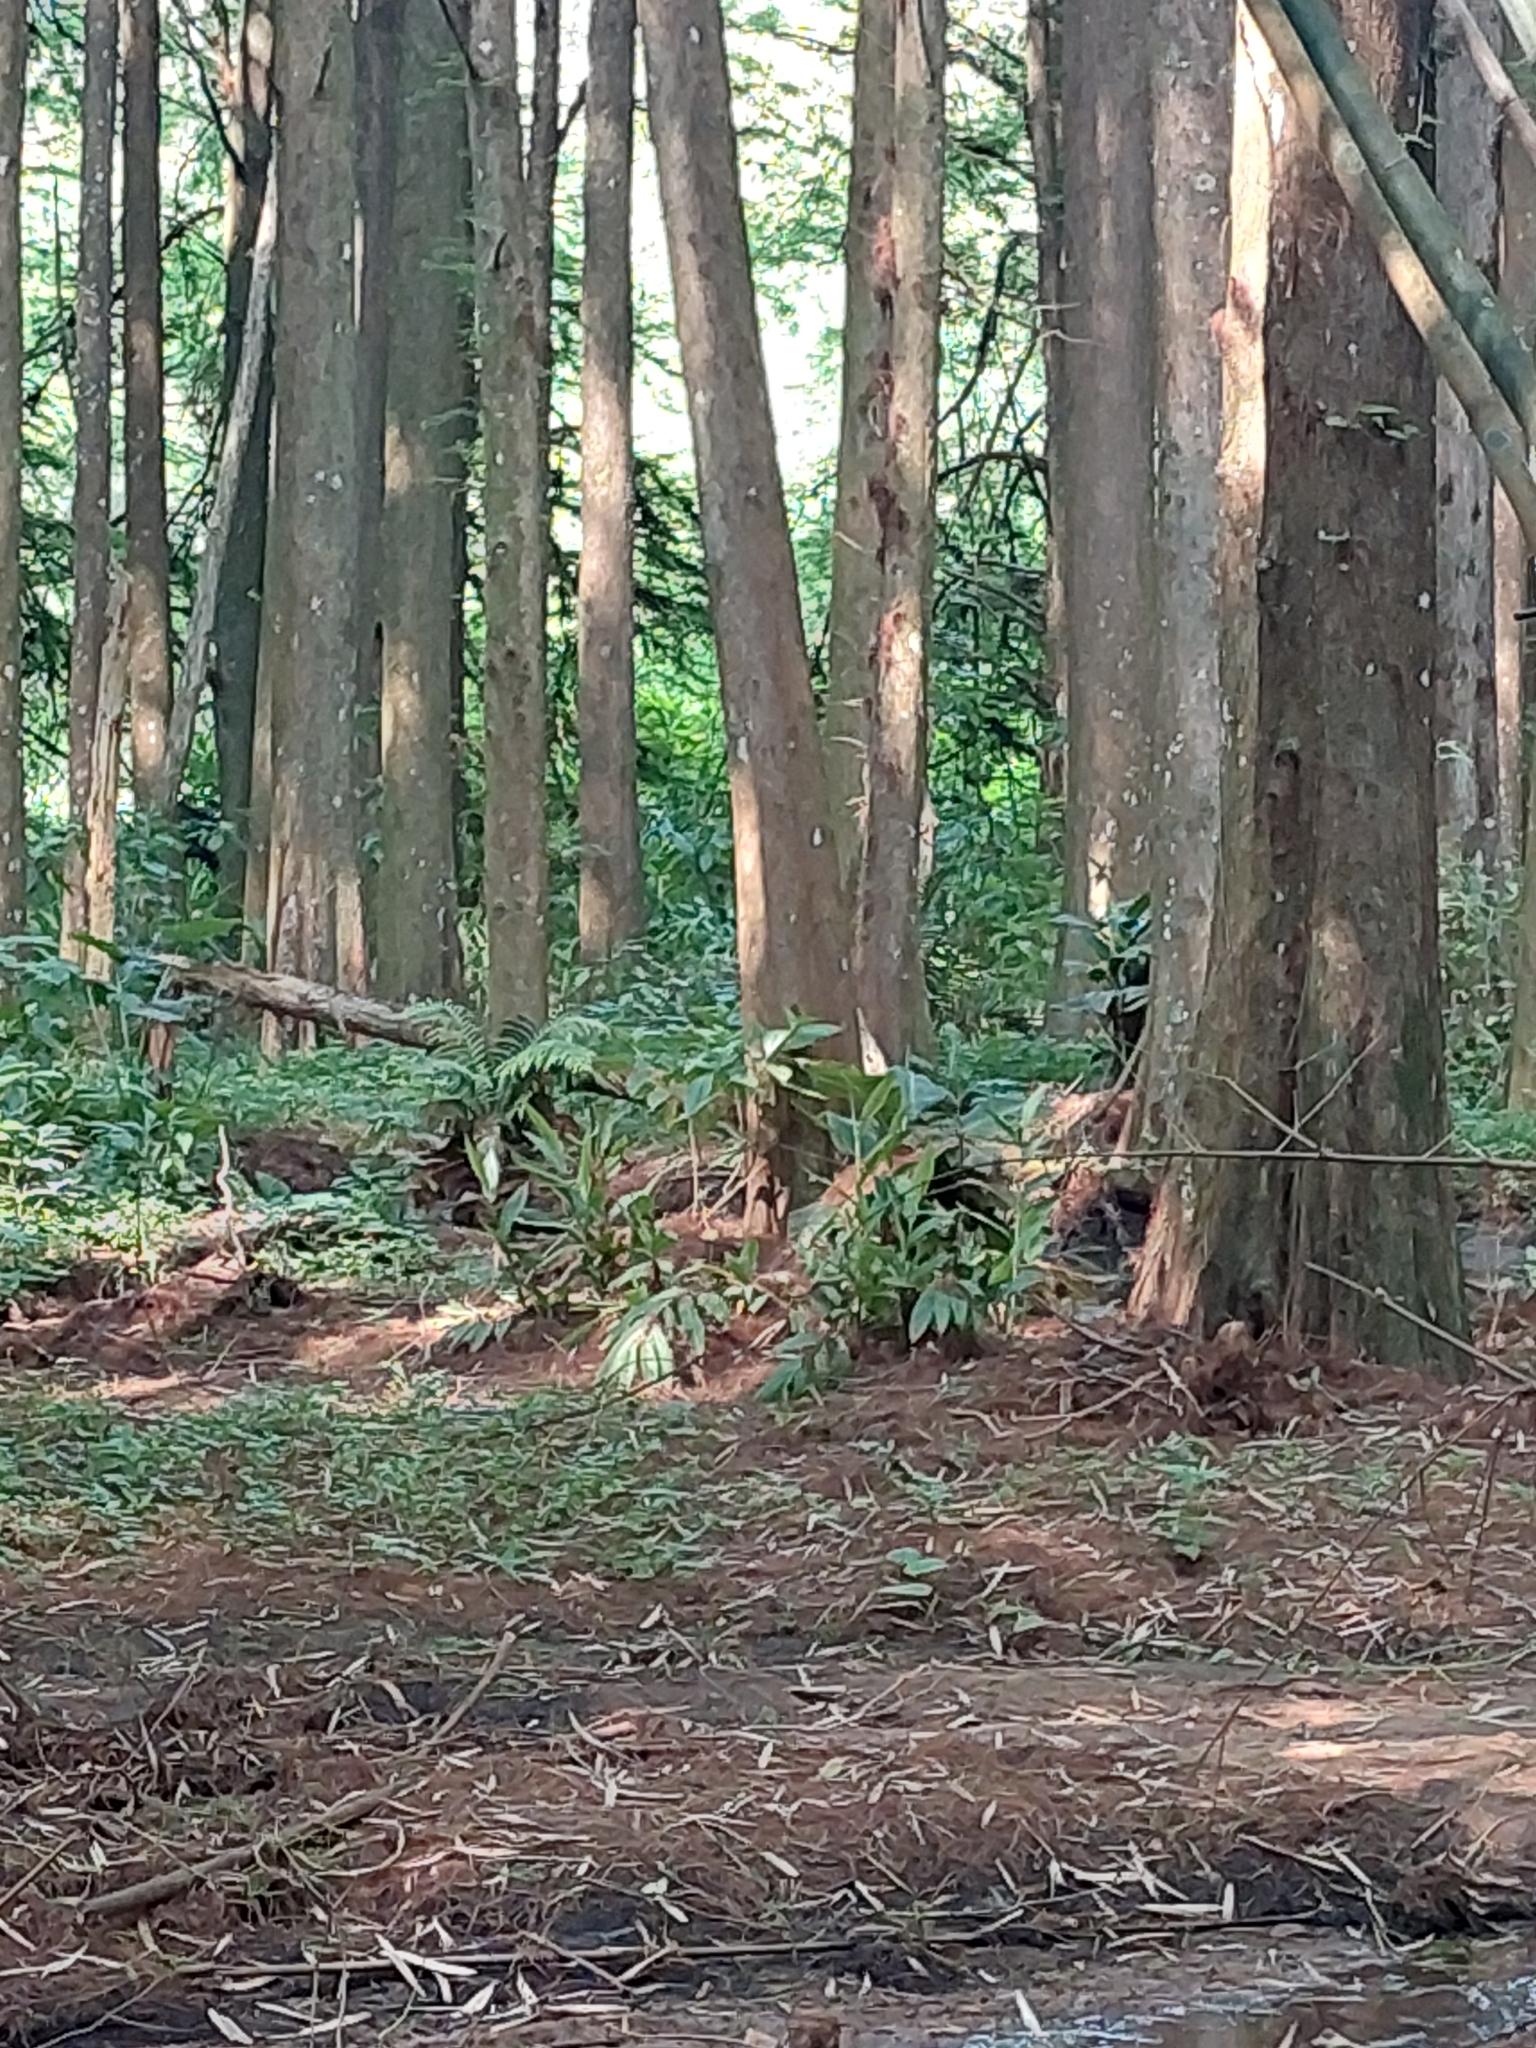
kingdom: Plantae
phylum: Tracheophyta
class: Liliopsida
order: Zingiberales
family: Zingiberaceae
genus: Hedychium
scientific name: Hedychium coronarium
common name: White garland-lily
